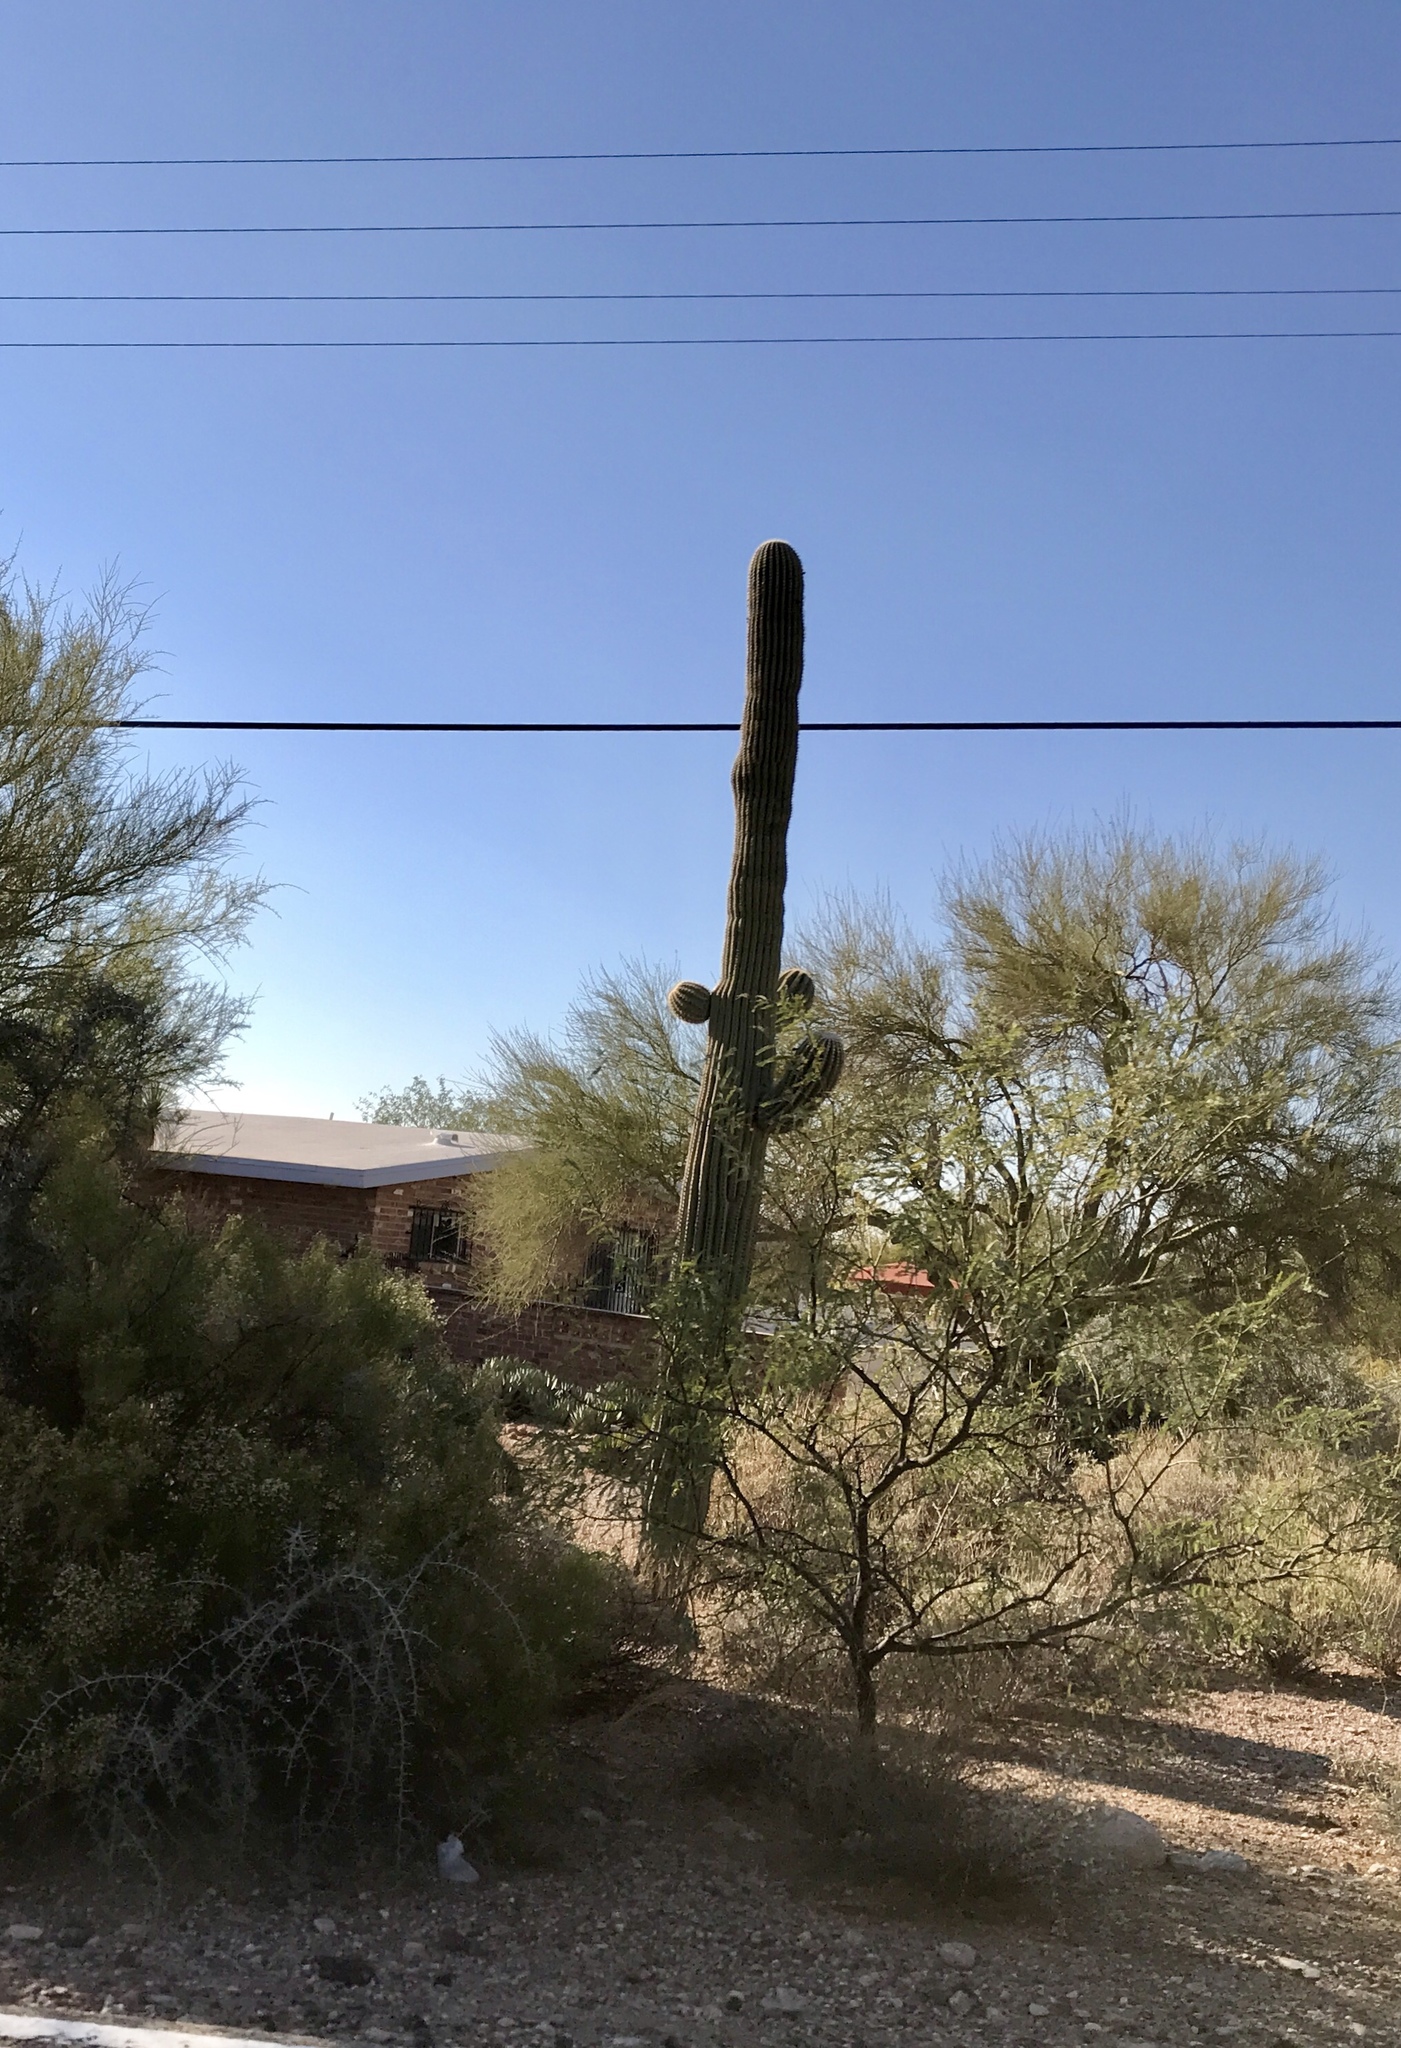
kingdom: Plantae
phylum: Tracheophyta
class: Magnoliopsida
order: Caryophyllales
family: Cactaceae
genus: Carnegiea
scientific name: Carnegiea gigantea
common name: Saguaro
